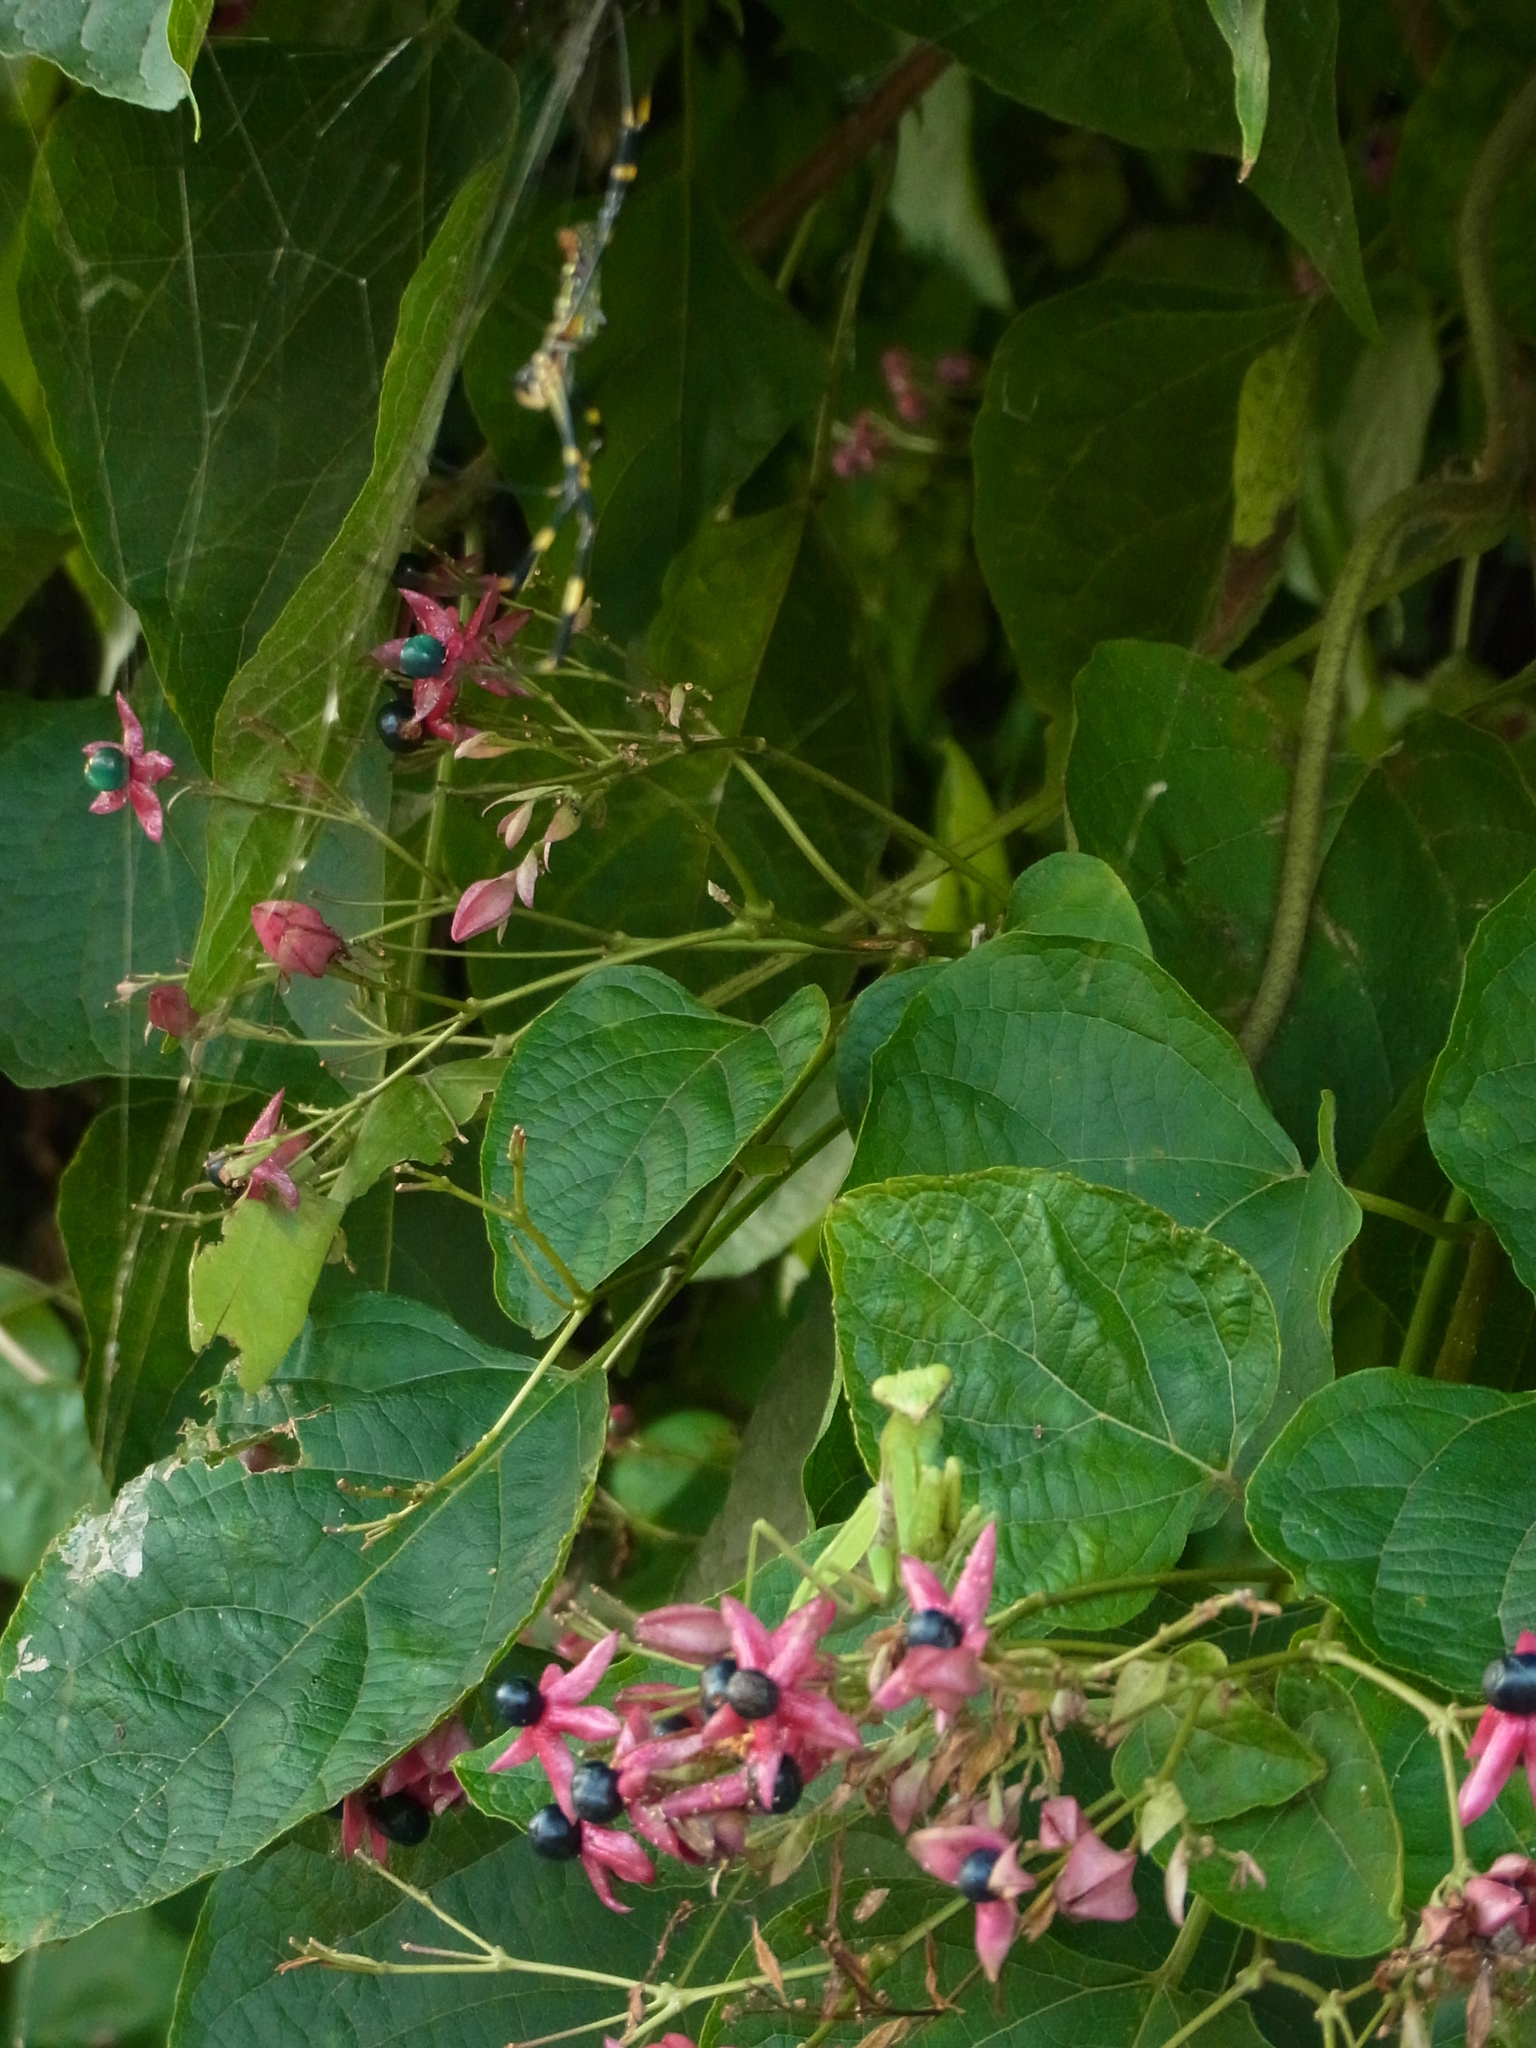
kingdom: Plantae
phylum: Tracheophyta
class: Magnoliopsida
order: Lamiales
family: Lamiaceae
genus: Clerodendrum
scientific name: Clerodendrum trichotomum
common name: Harlequin glorybower
